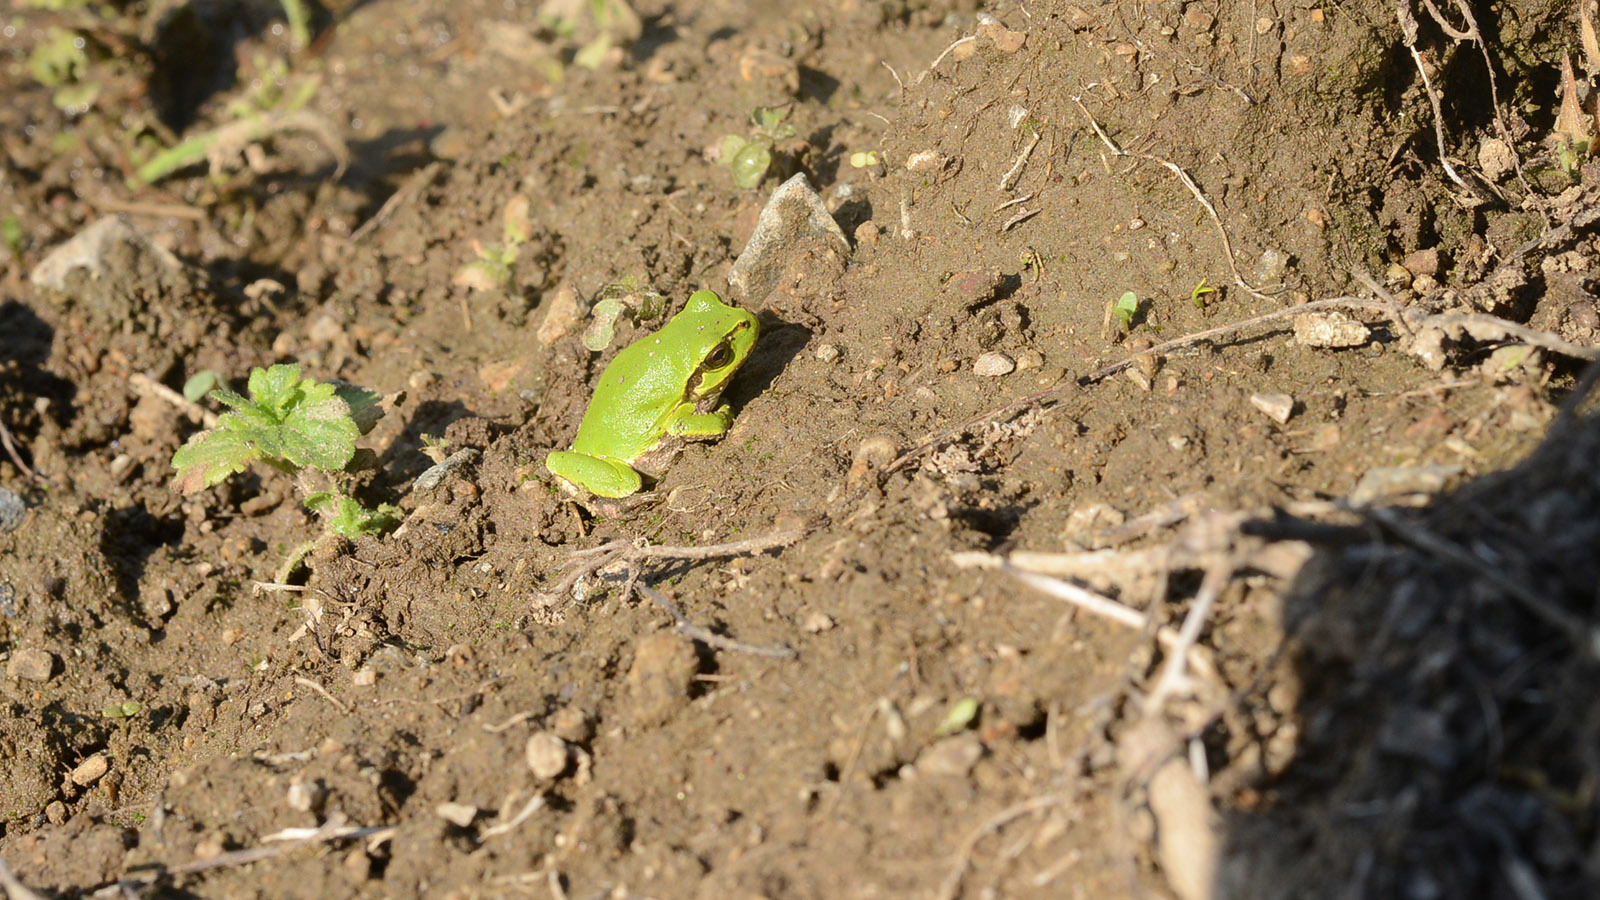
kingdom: Animalia
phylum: Chordata
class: Amphibia
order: Anura
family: Hylidae
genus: Dryophytes
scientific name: Dryophytes japonicus
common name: Japanese treefrog
